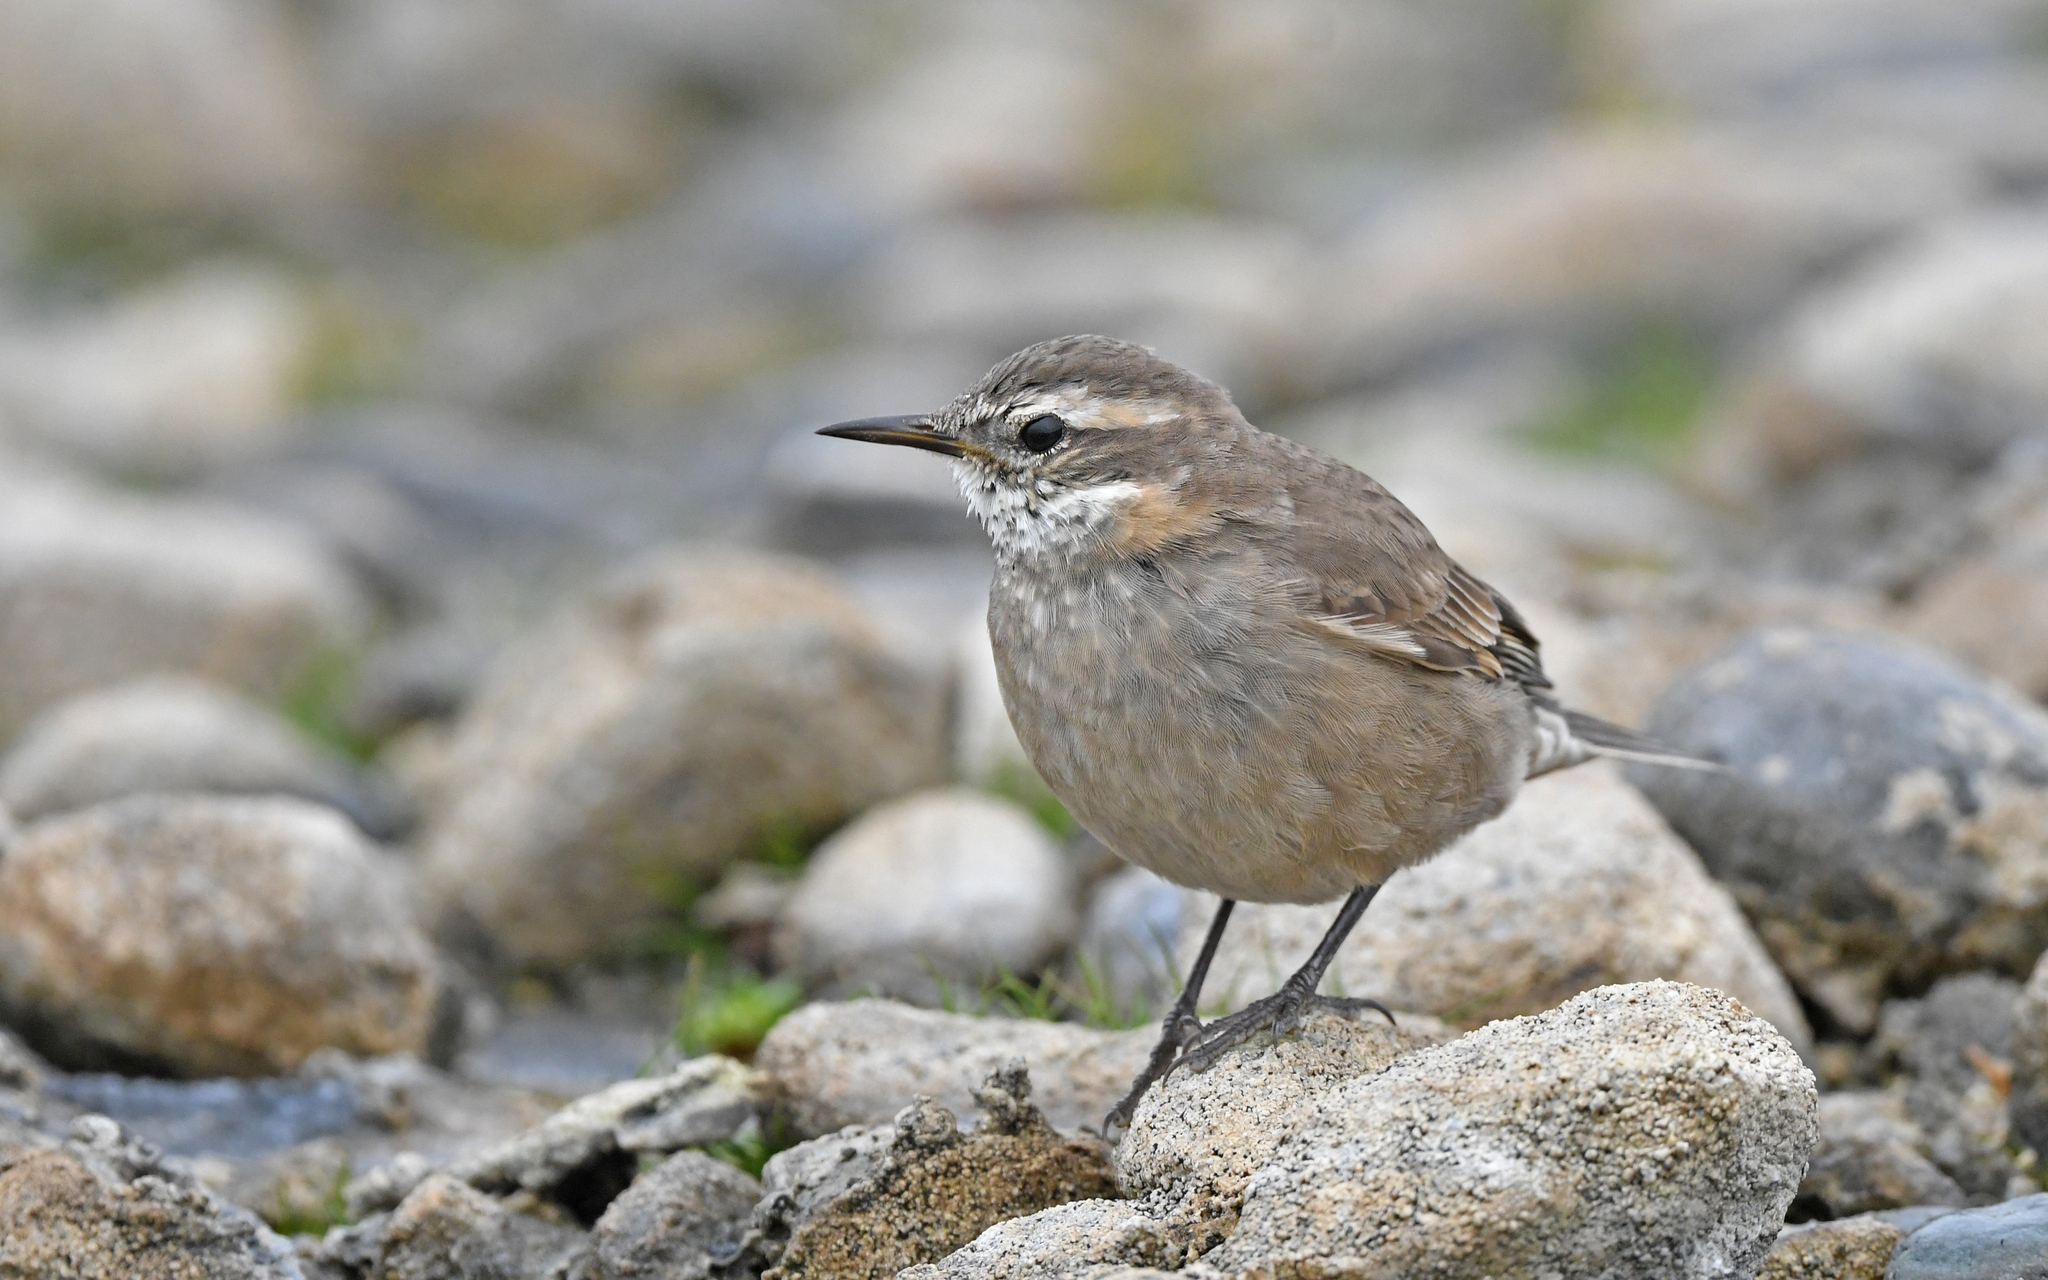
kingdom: Animalia
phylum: Chordata
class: Aves
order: Passeriformes
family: Furnariidae
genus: Cinclodes
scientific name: Cinclodes fuscus
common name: Buff-winged cinclodes
